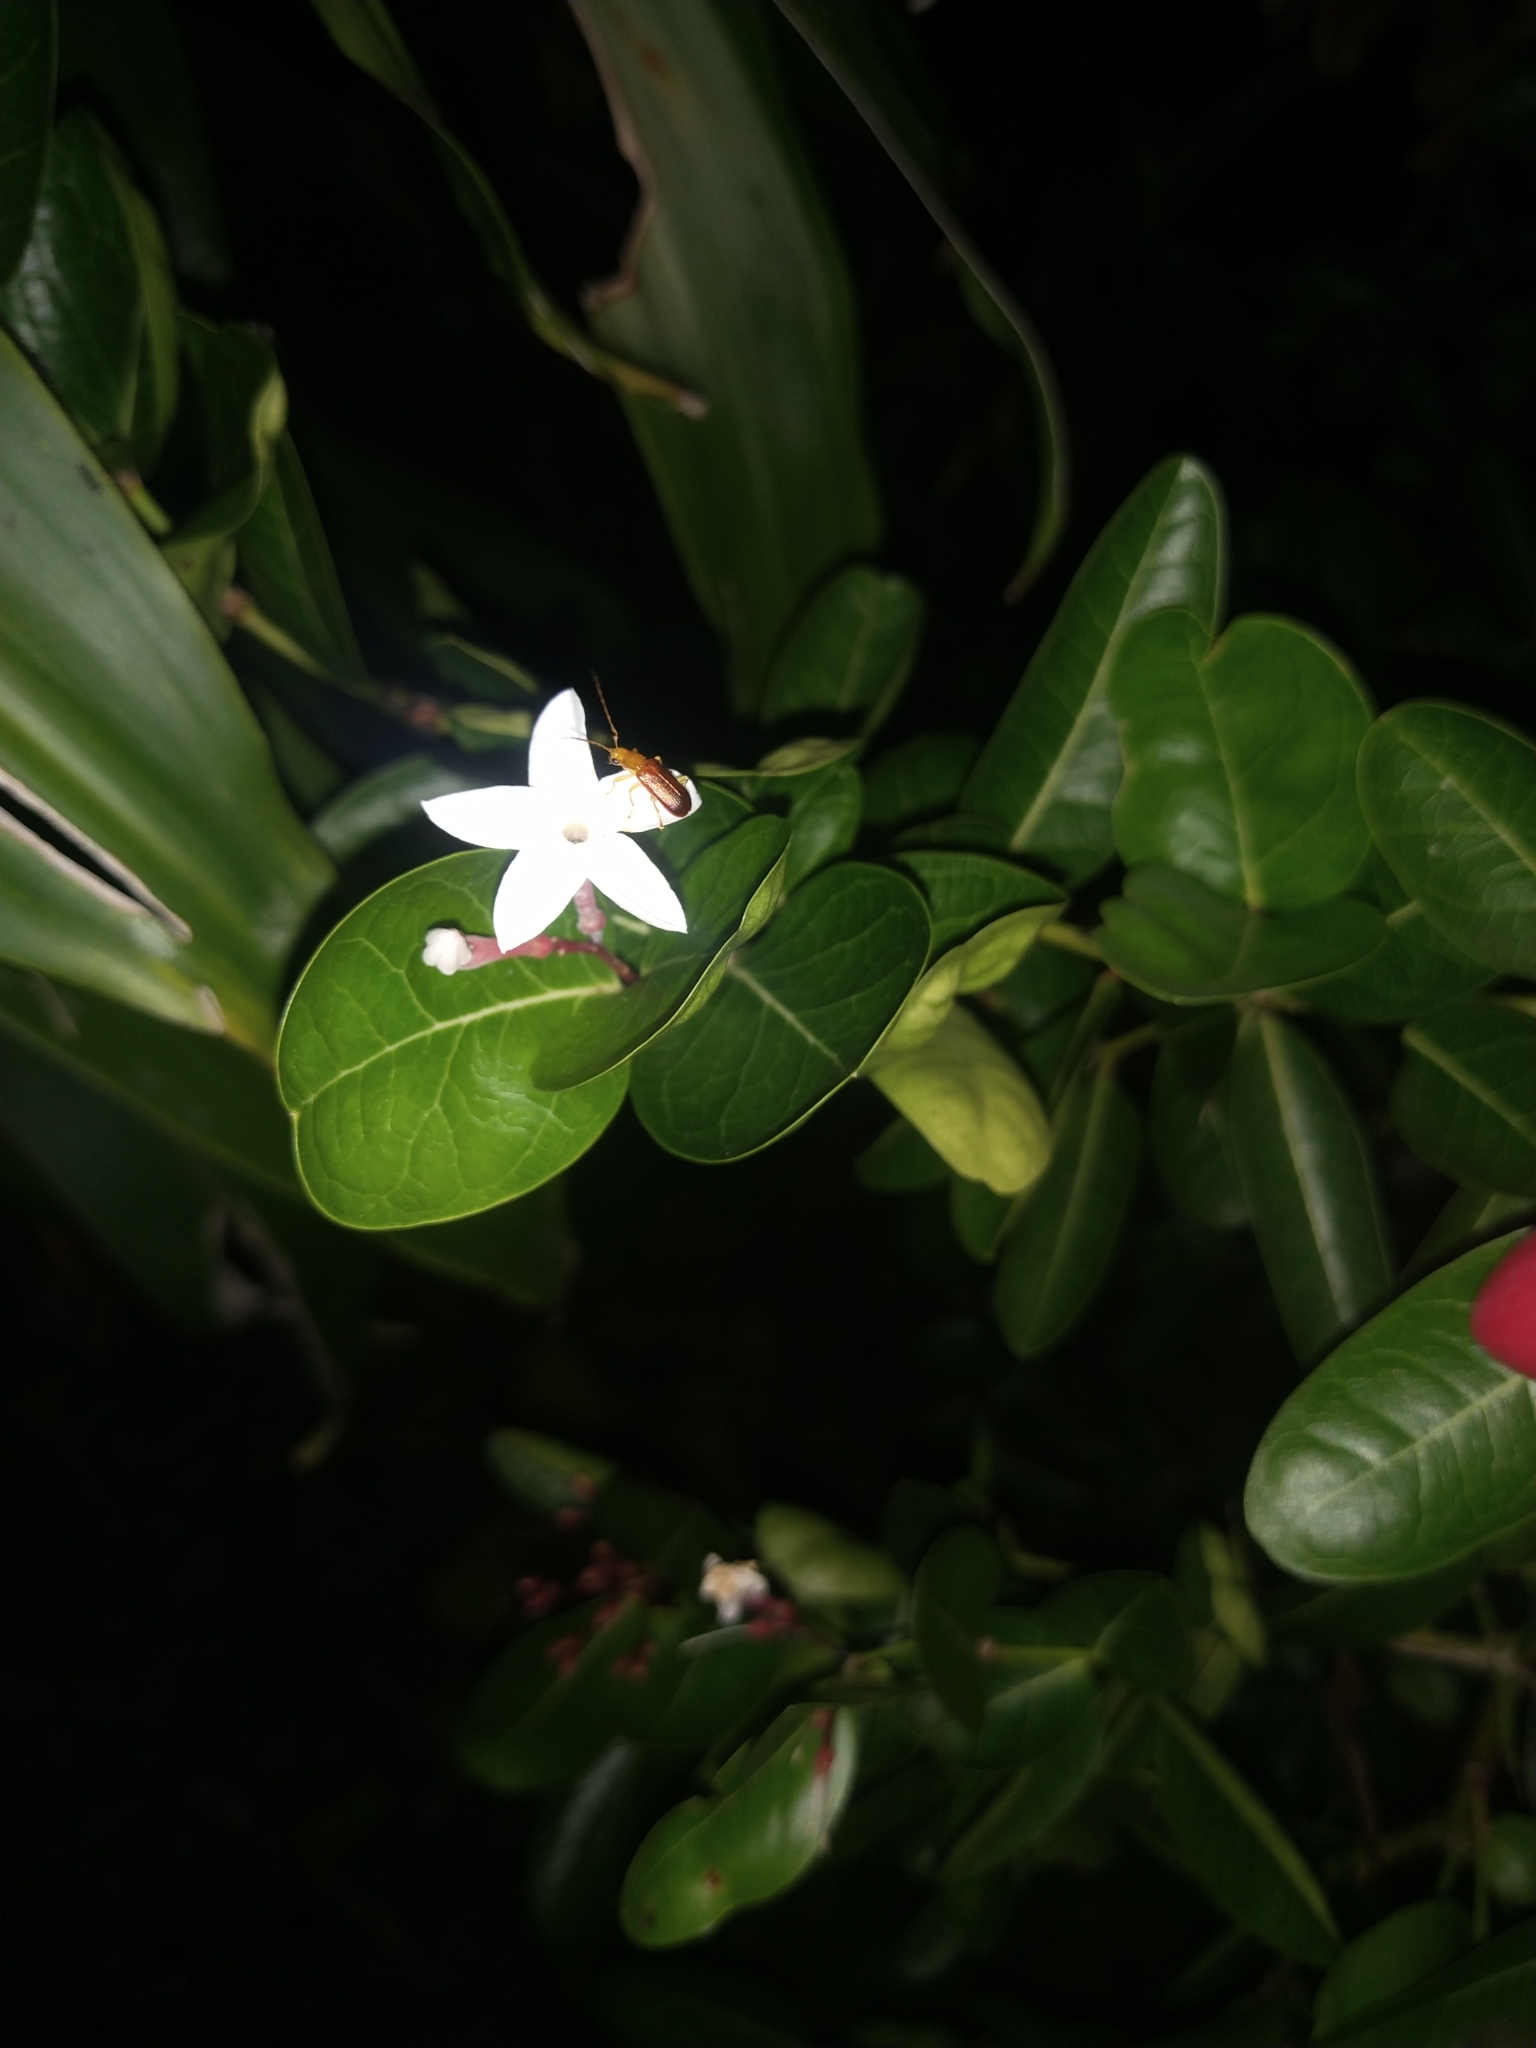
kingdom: Plantae
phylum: Tracheophyta
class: Magnoliopsida
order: Gentianales
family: Apocynaceae
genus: Carissa
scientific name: Carissa carandas
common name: Karanda
